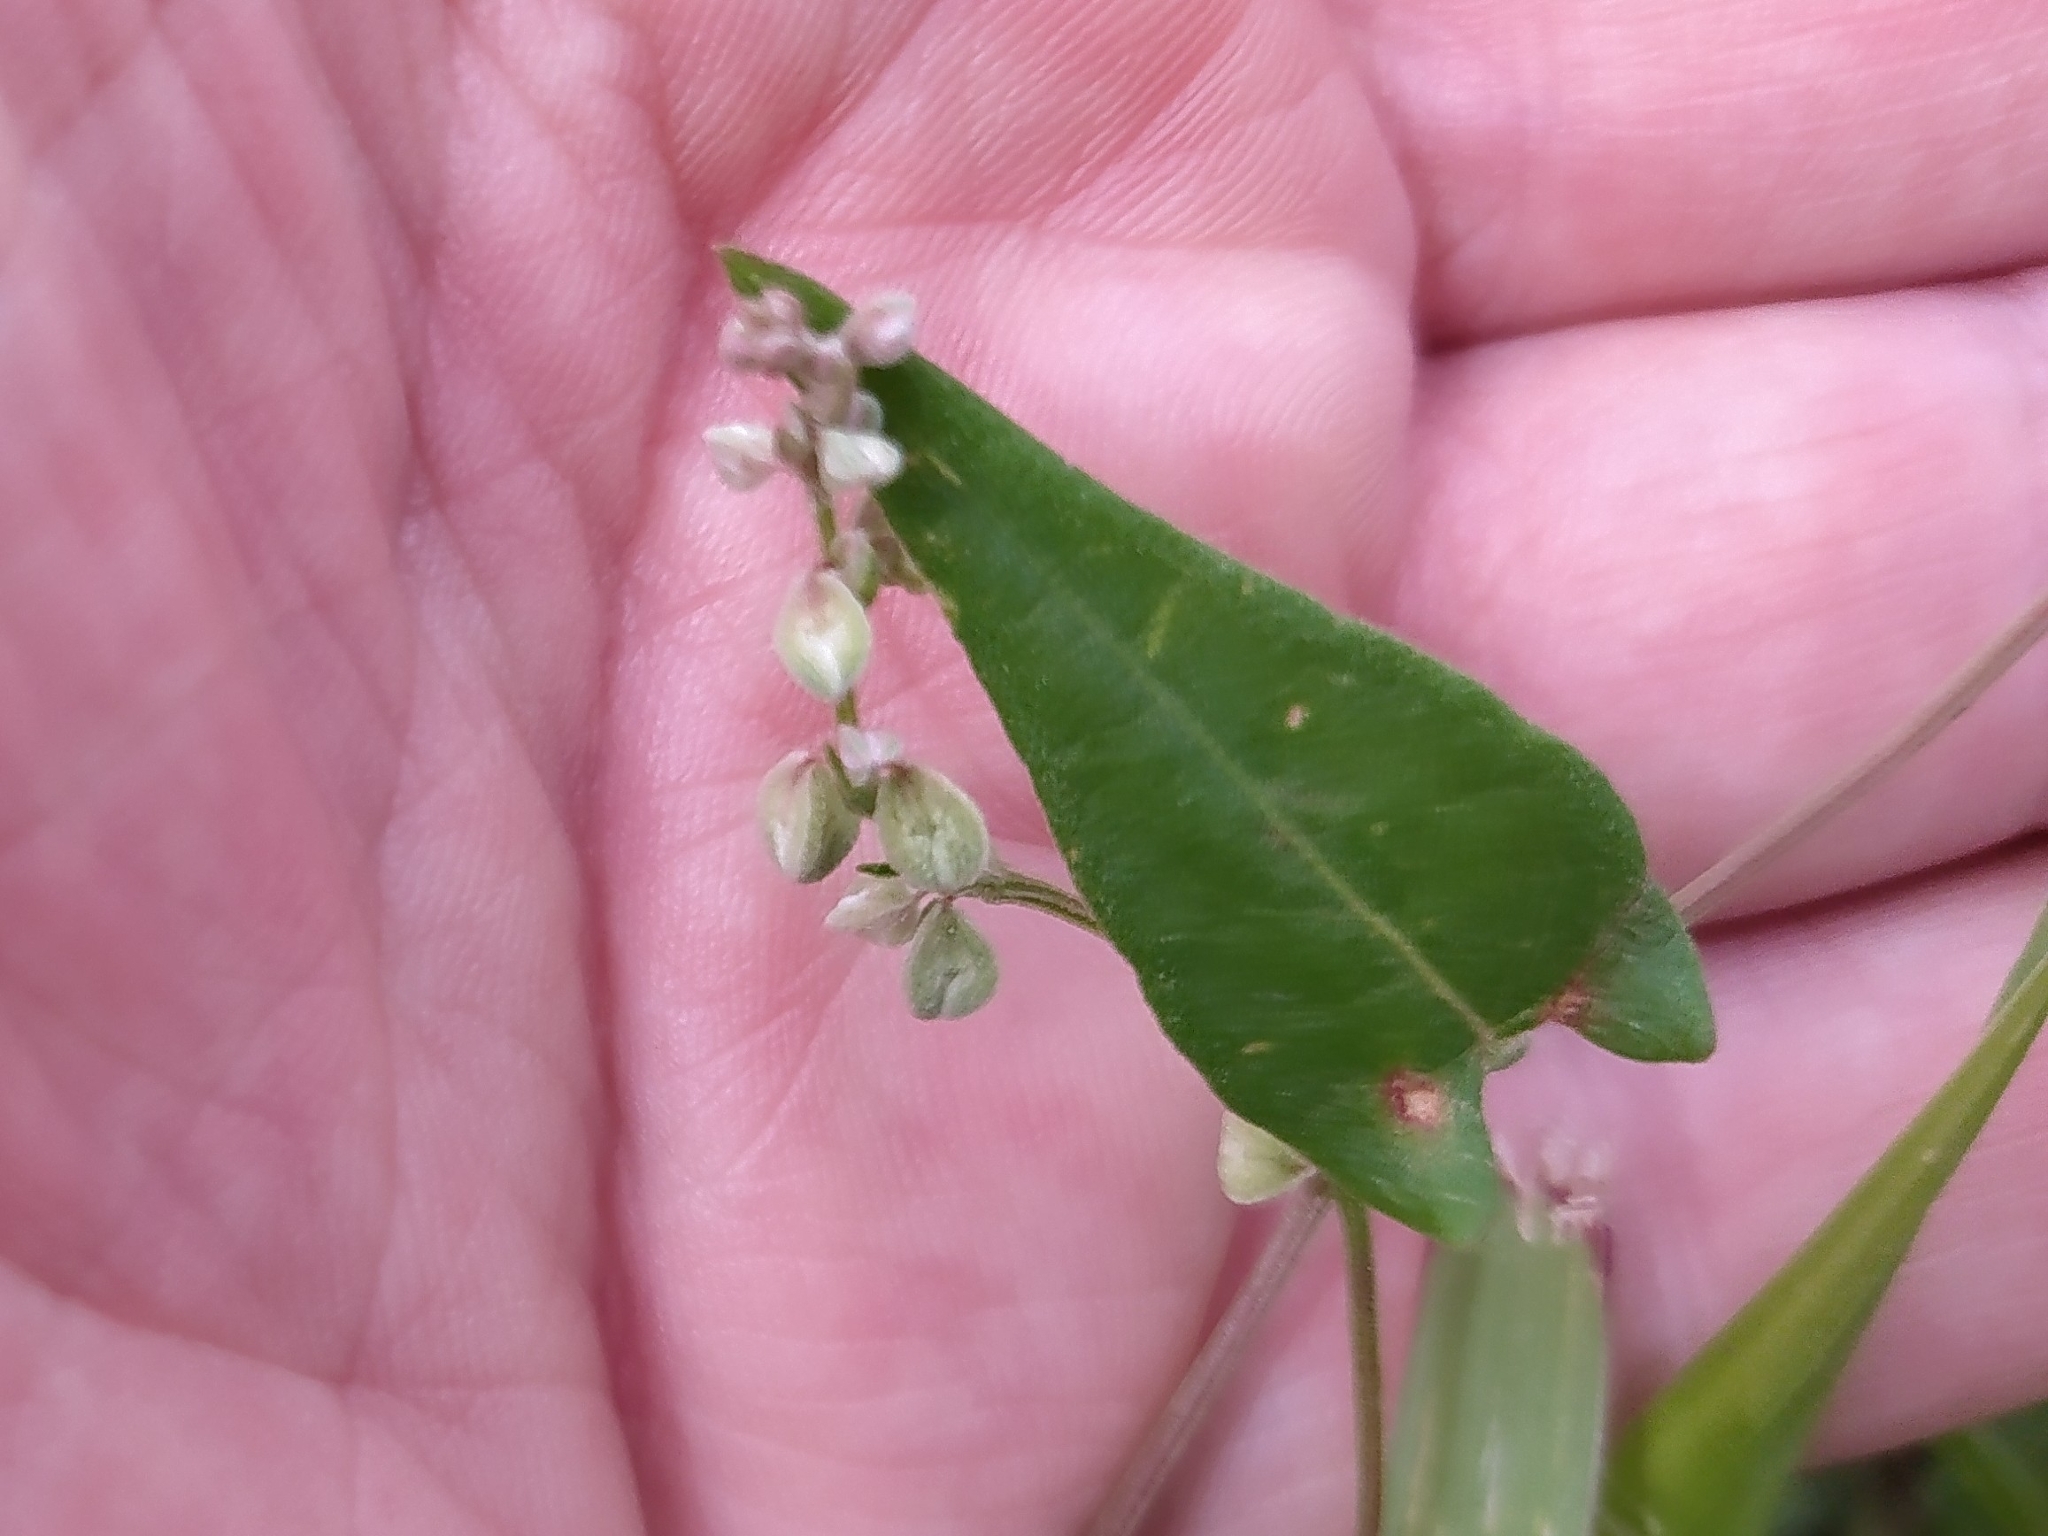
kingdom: Plantae
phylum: Tracheophyta
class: Magnoliopsida
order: Caryophyllales
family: Polygonaceae
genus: Fallopia
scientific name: Fallopia convolvulus
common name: Black bindweed
